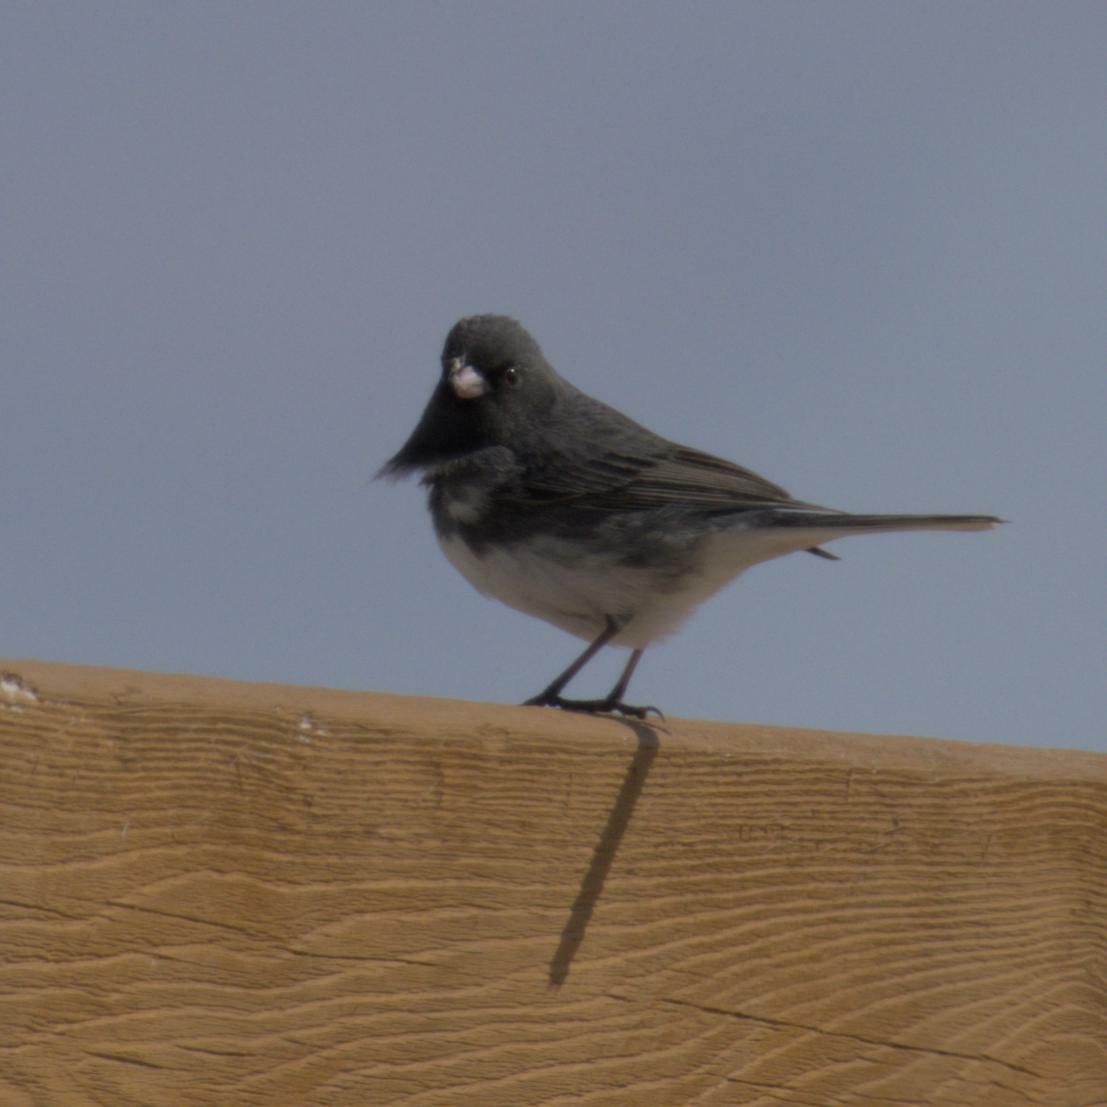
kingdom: Animalia
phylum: Chordata
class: Aves
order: Passeriformes
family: Passerellidae
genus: Junco
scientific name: Junco hyemalis
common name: Dark-eyed junco
